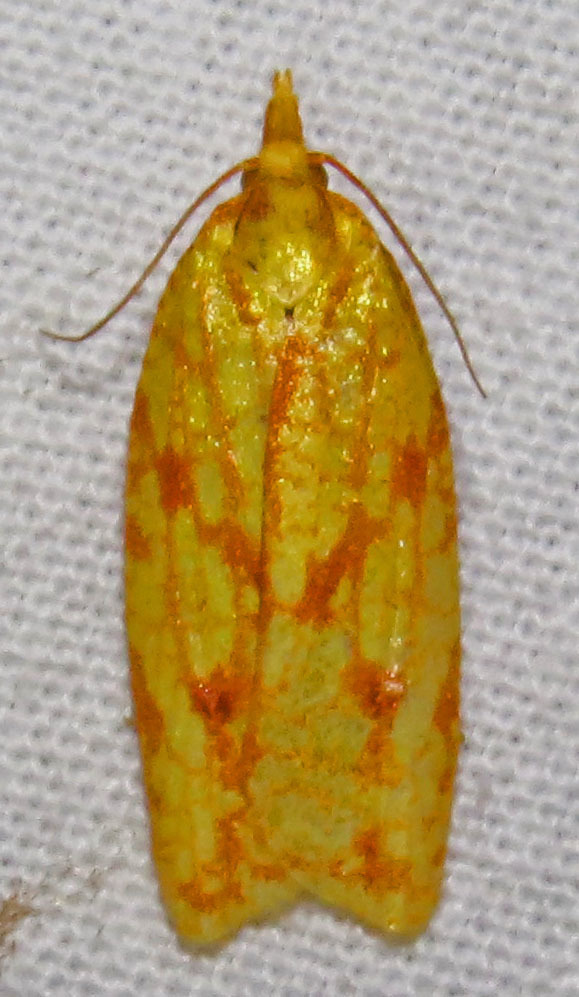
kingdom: Animalia
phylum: Arthropoda
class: Insecta
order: Lepidoptera
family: Tortricidae
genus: Sparganothis
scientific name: Sparganothis sulfureana
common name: Sparganothis fruitworm moth
